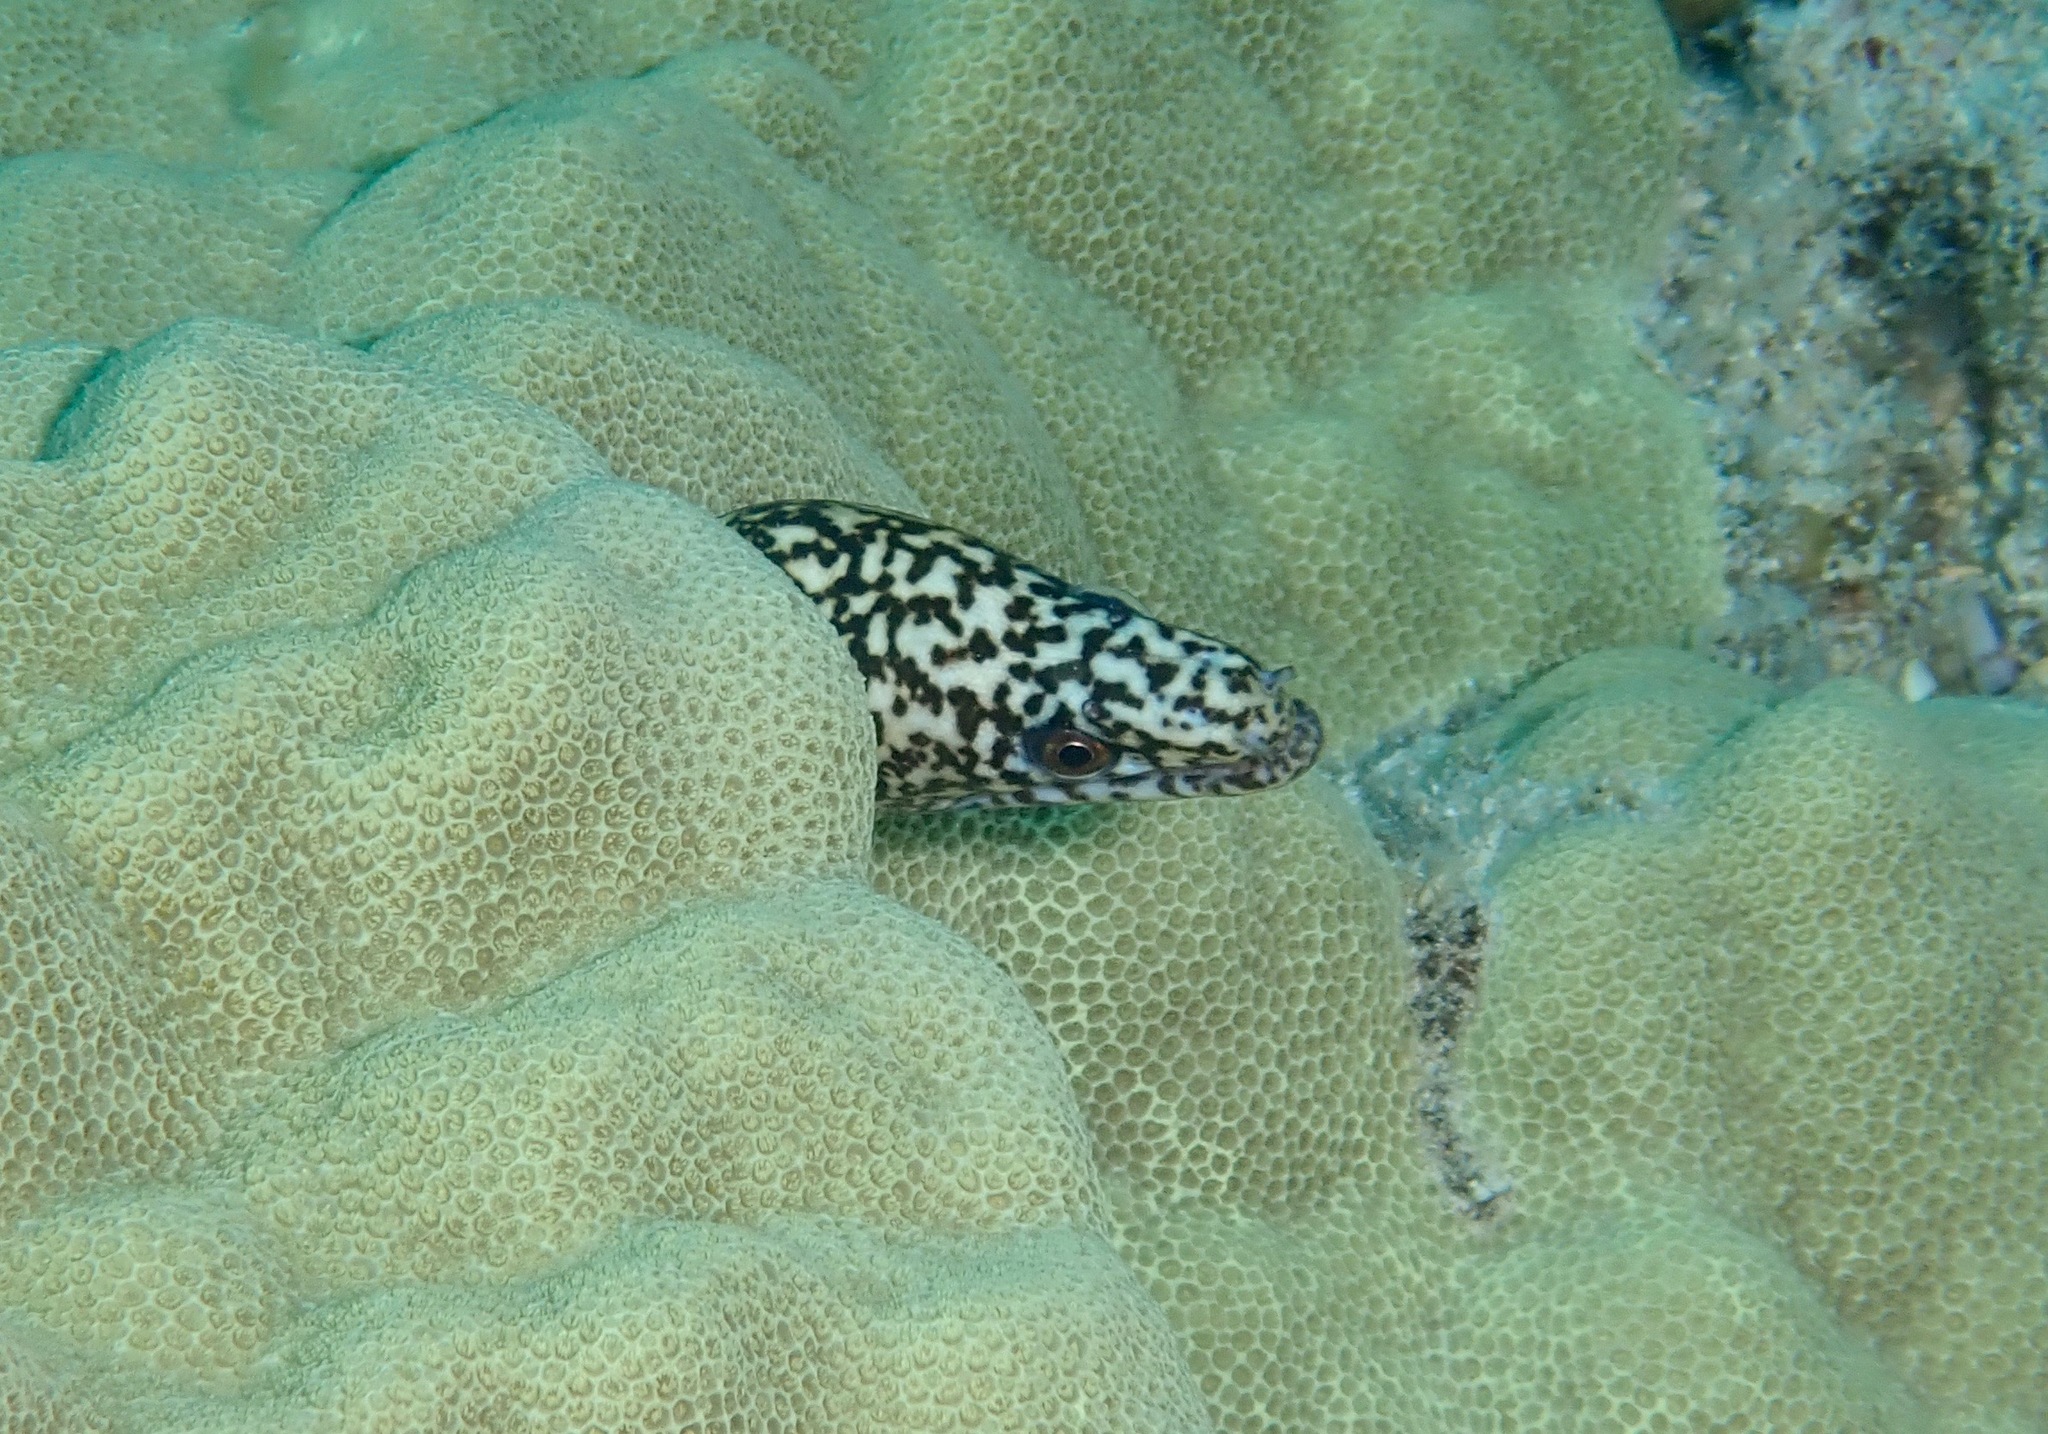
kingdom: Animalia
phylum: Chordata
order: Anguilliformes
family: Muraenidae
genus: Gymnothorax
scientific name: Gymnothorax eurostus
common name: Stout moray
